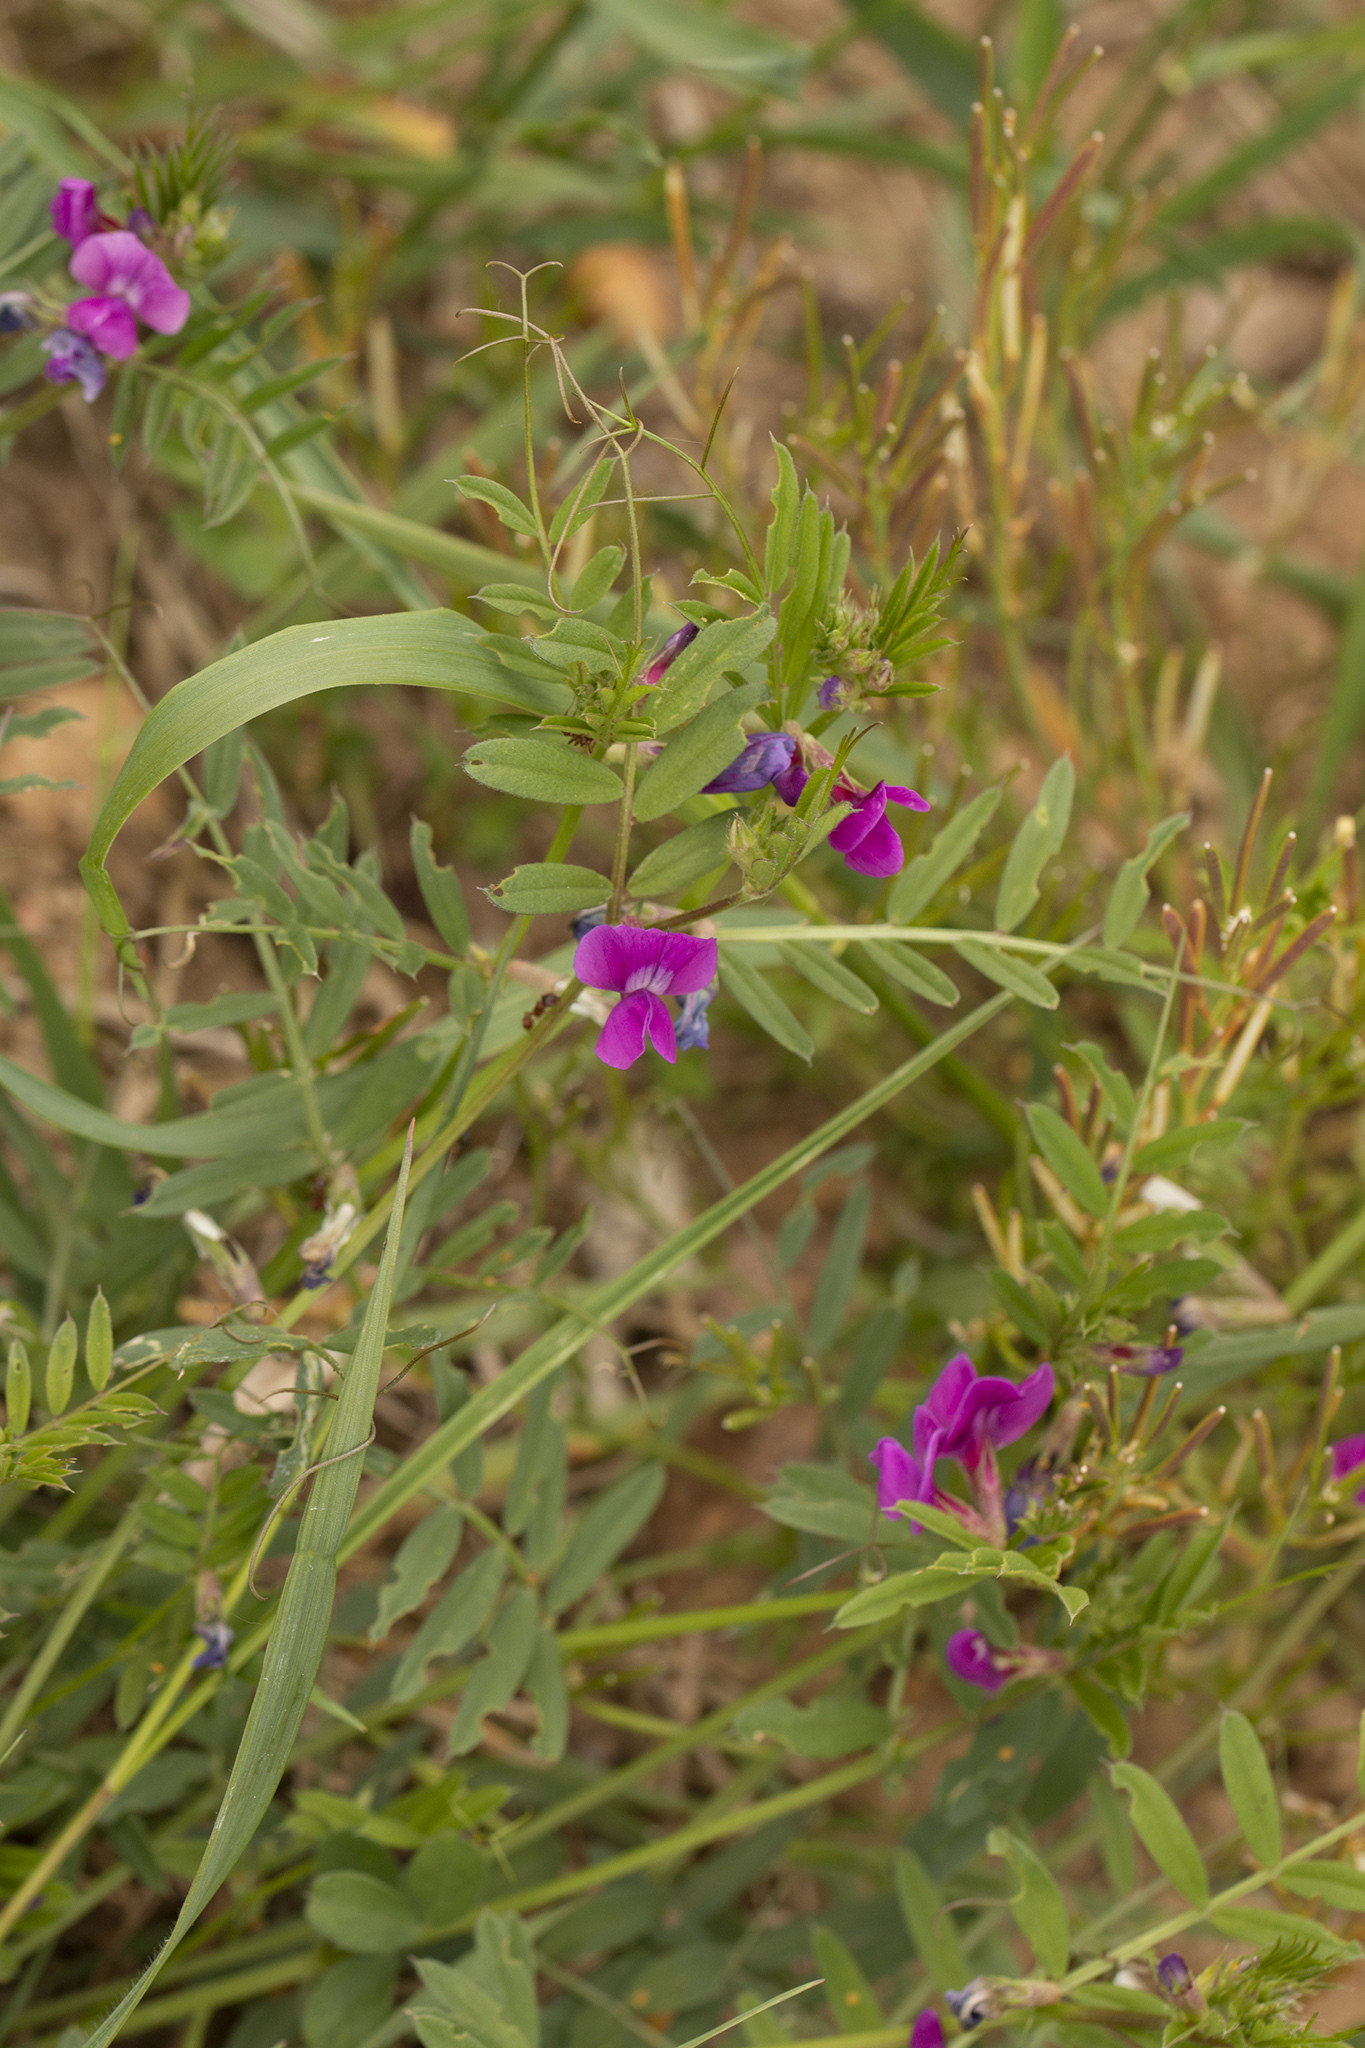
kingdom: Plantae
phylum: Tracheophyta
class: Magnoliopsida
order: Fabales
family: Fabaceae
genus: Vicia
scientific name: Vicia sativa
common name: Garden vetch
